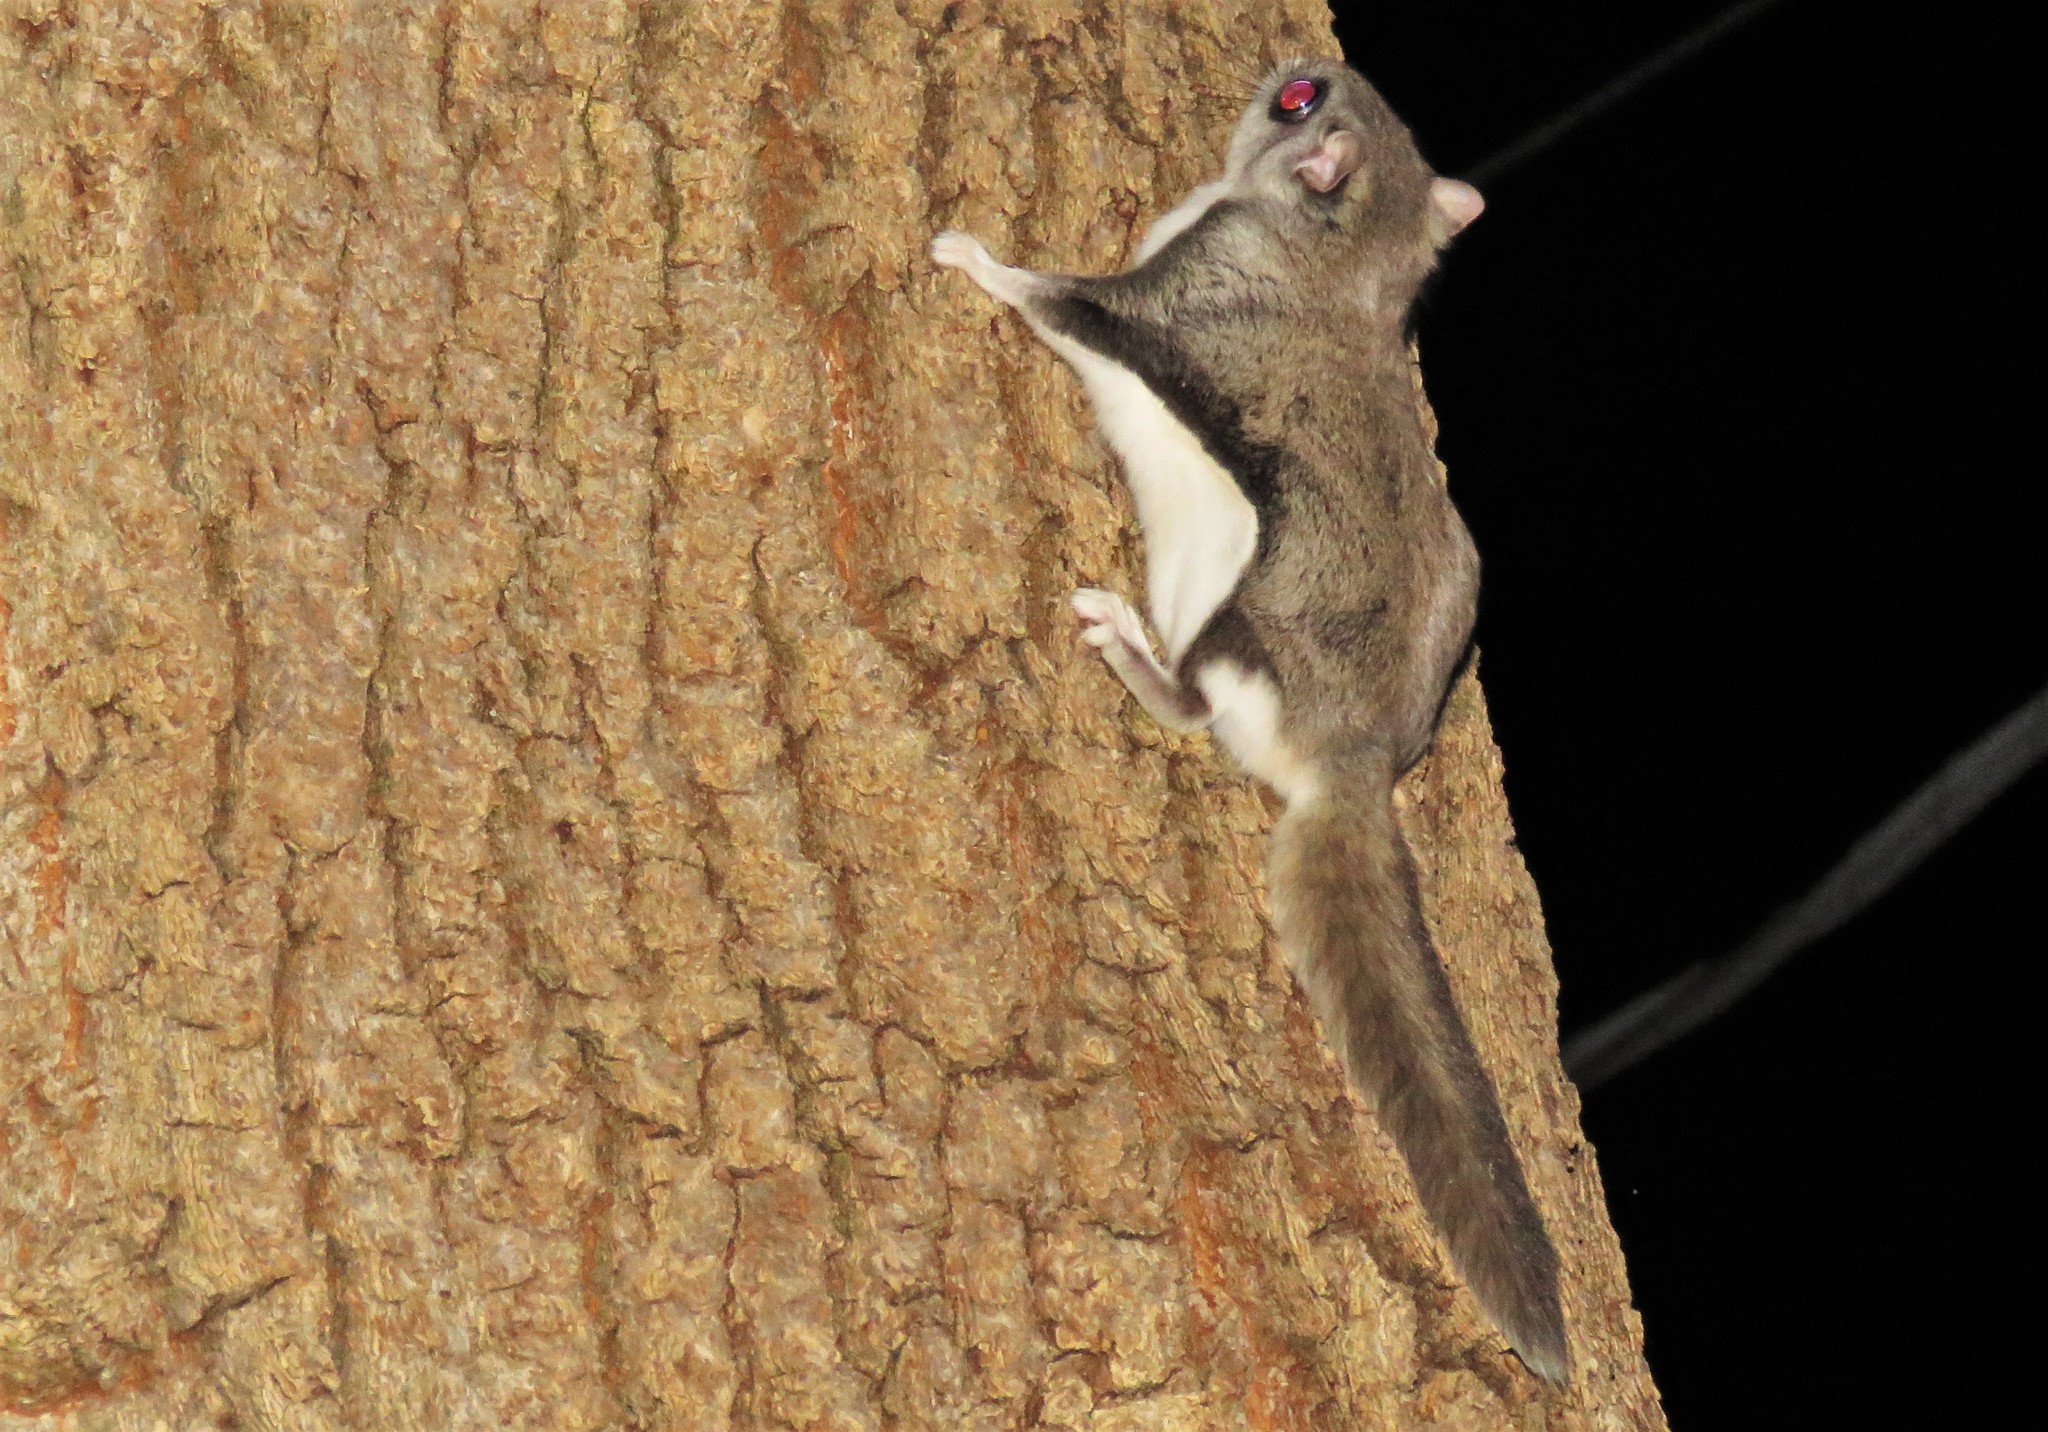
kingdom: Animalia
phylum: Chordata
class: Mammalia
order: Rodentia
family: Sciuridae
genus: Glaucomys
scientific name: Glaucomys volans
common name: Southern flying squirrel
